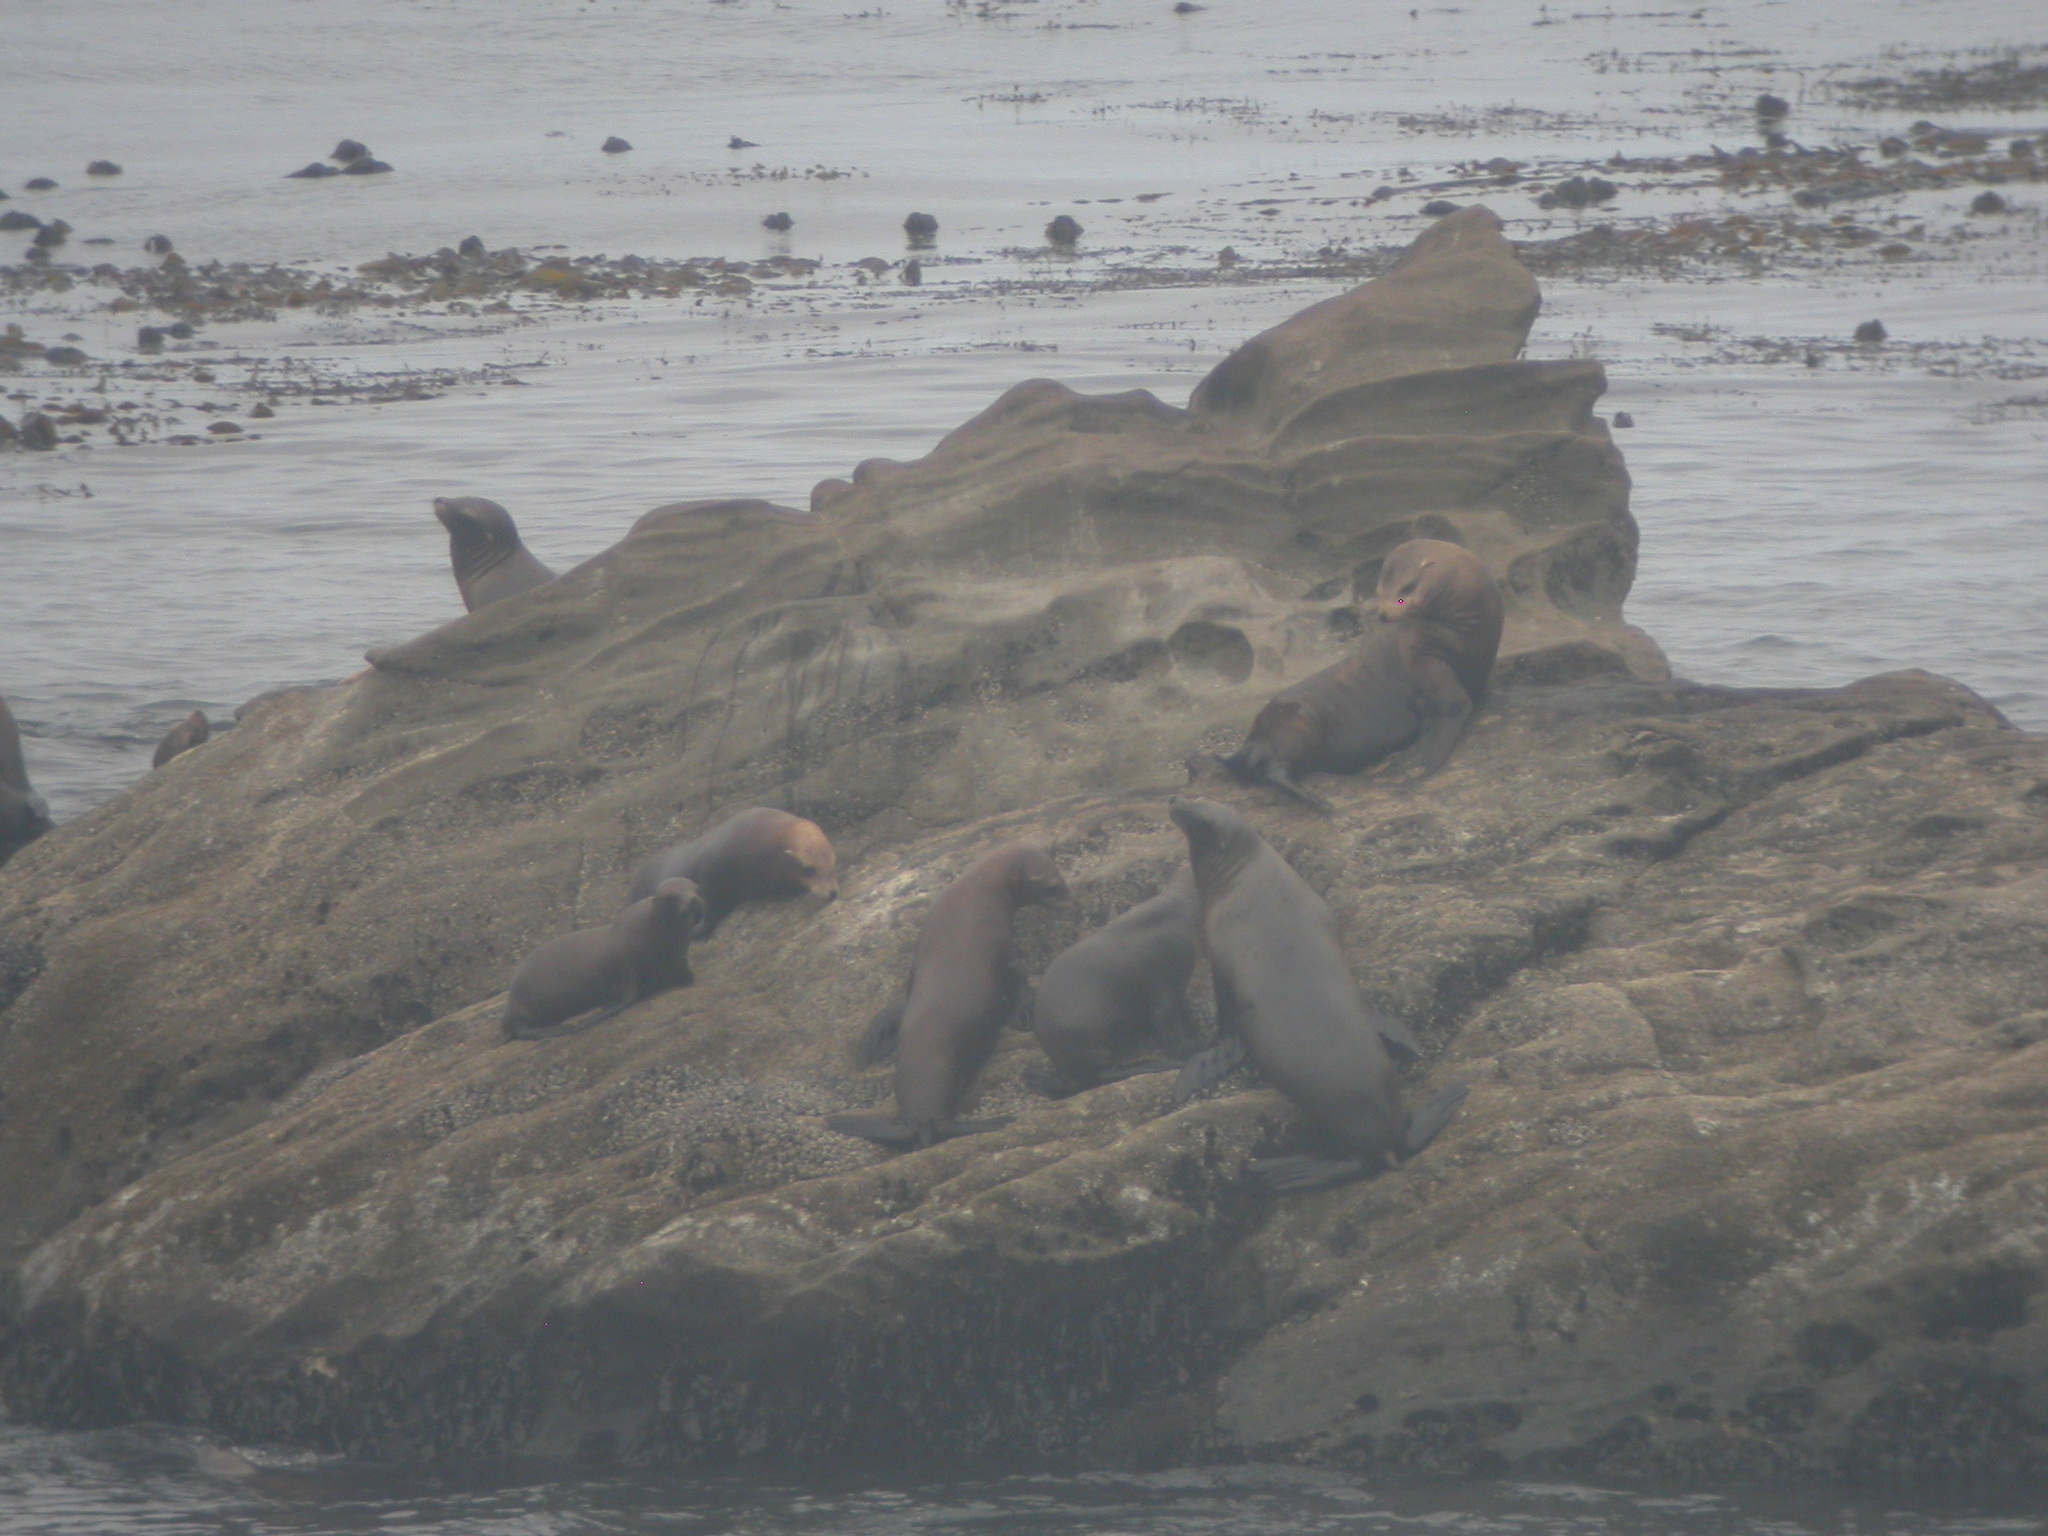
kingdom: Animalia
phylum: Chordata
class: Mammalia
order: Carnivora
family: Otariidae
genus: Zalophus
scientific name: Zalophus californianus
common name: California sea lion
